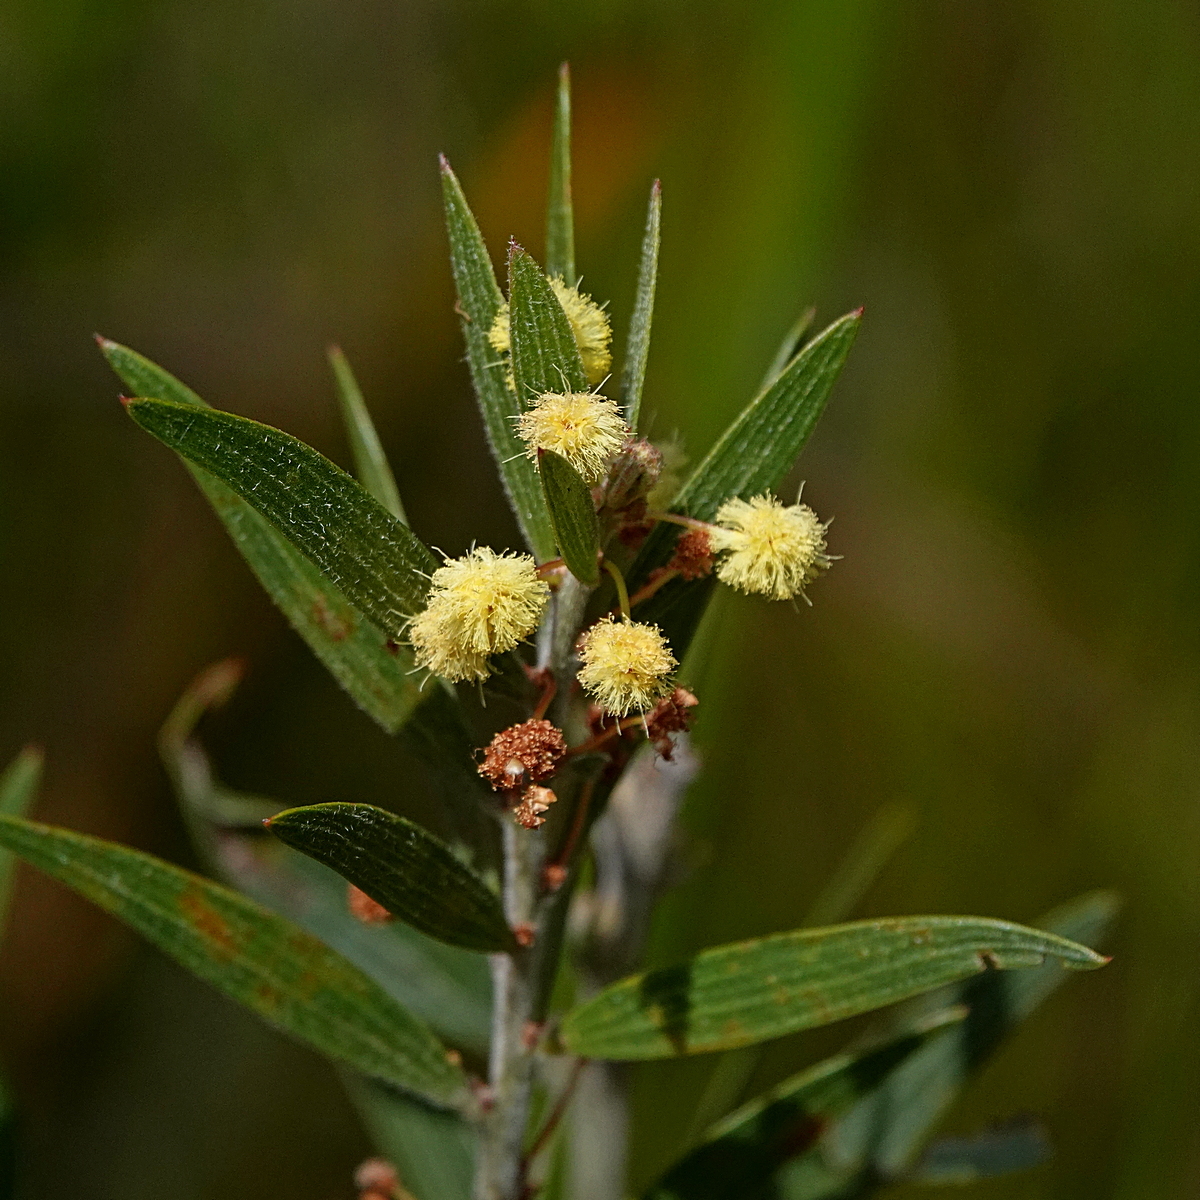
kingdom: Plantae
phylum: Tracheophyta
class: Magnoliopsida
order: Fabales
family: Fabaceae
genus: Acacia
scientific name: Acacia lanigera
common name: Hairy wattle
